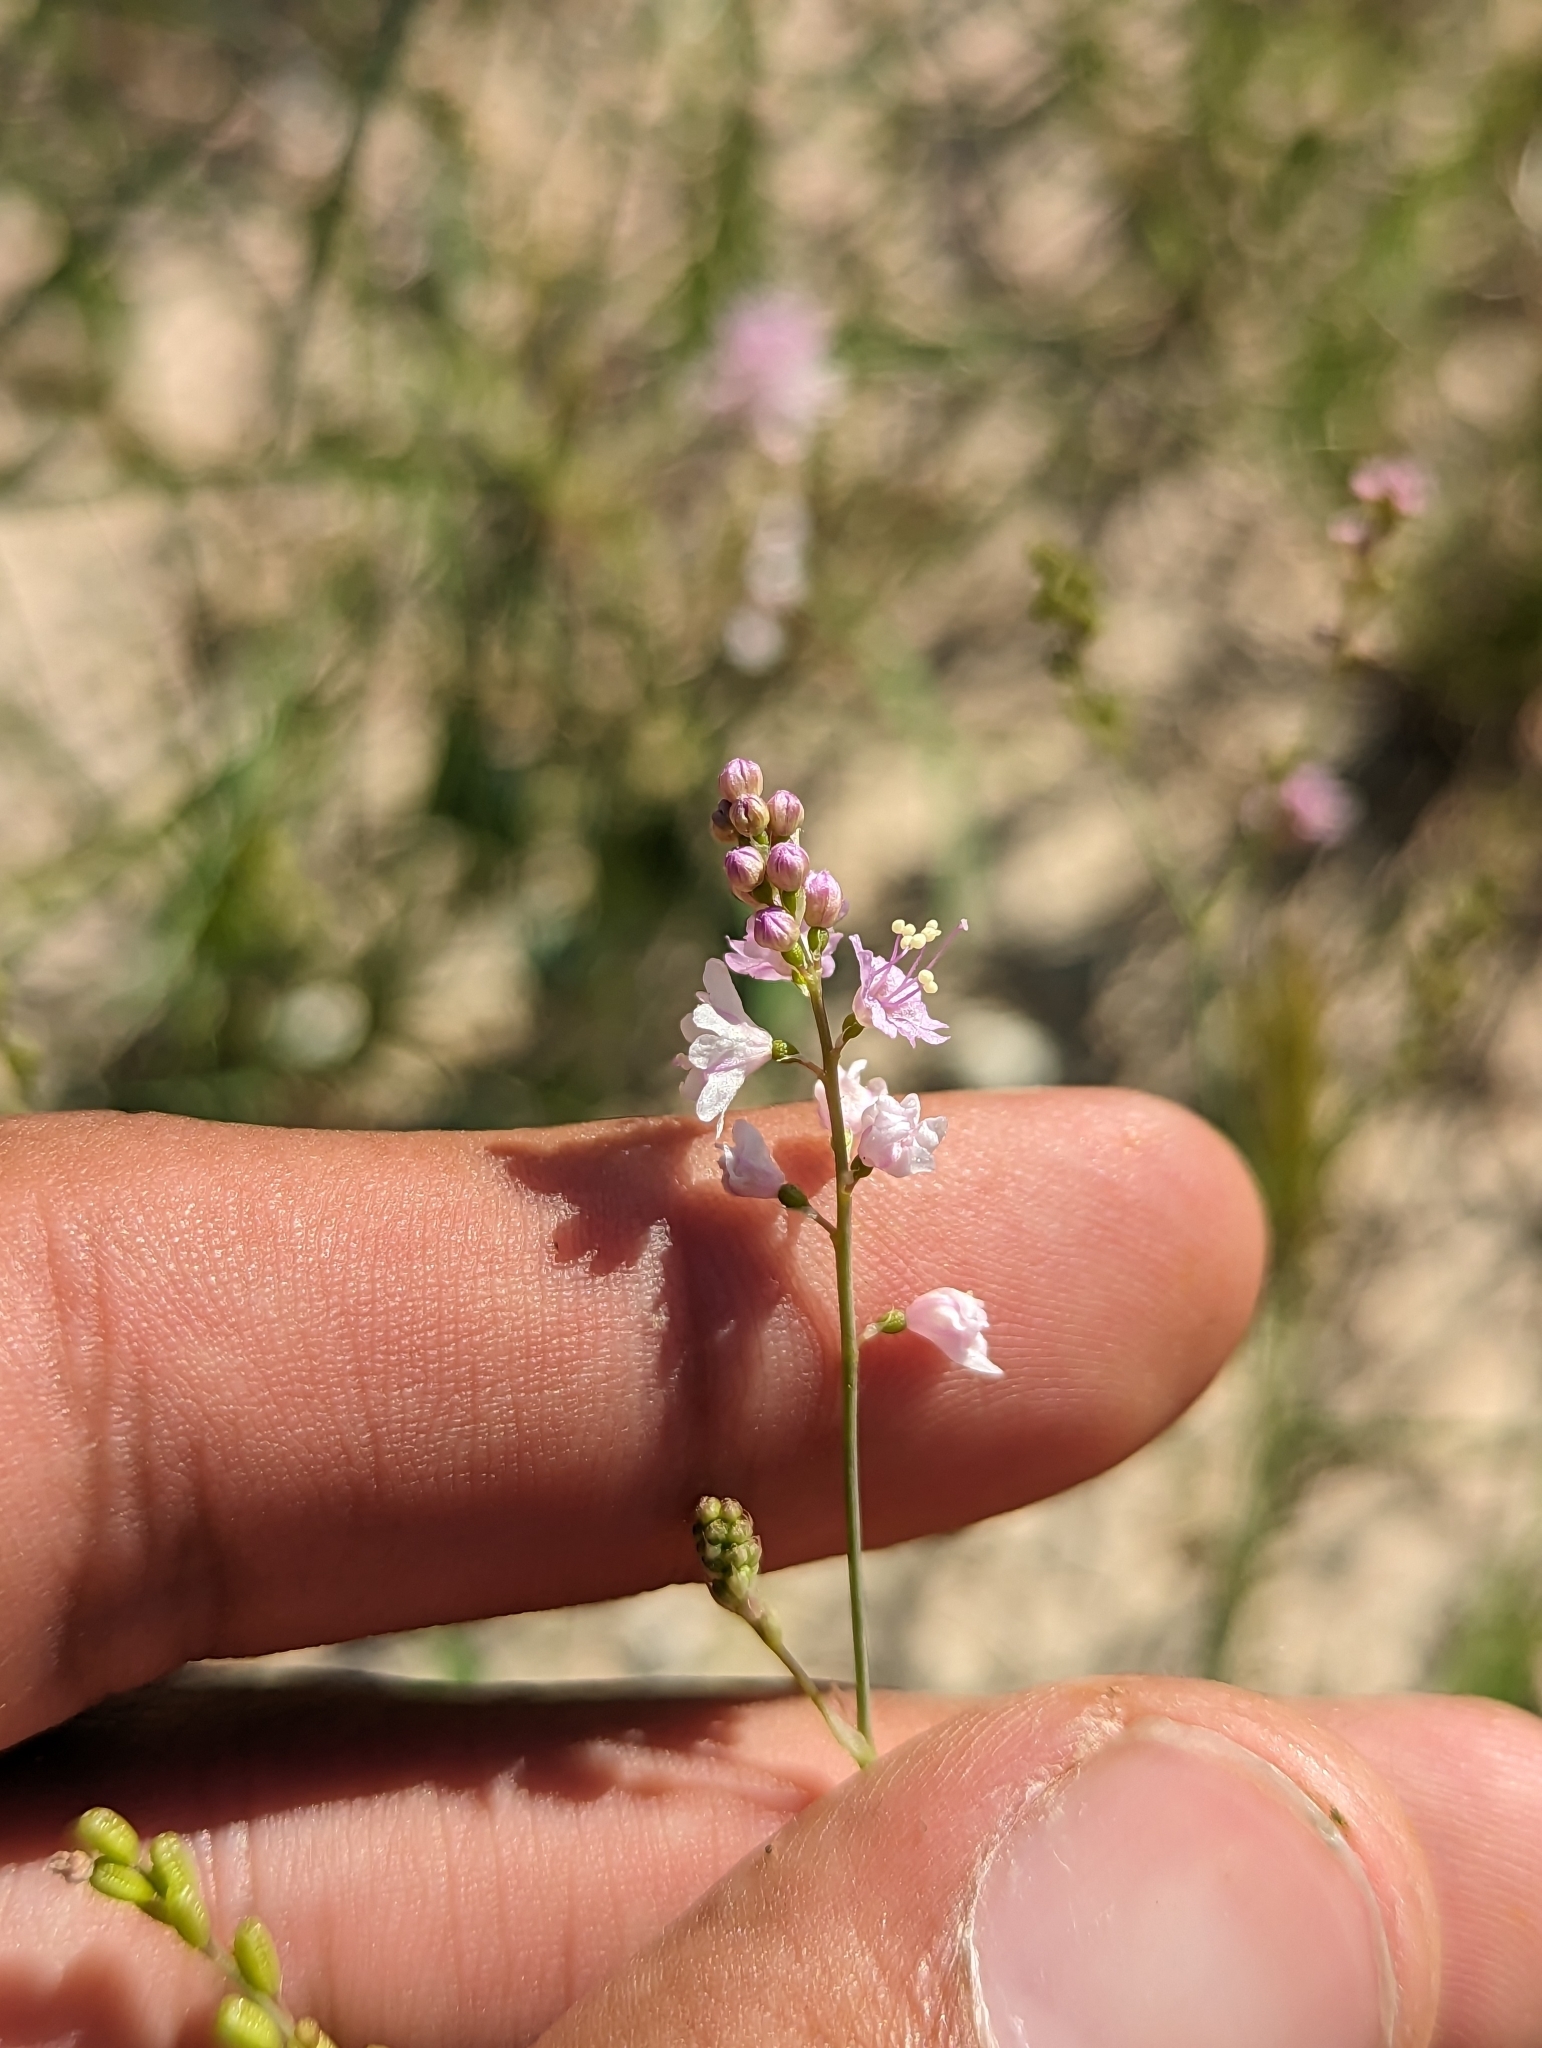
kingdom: Plantae
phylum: Tracheophyta
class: Magnoliopsida
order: Caryophyllales
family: Nyctaginaceae
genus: Boerhavia
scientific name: Boerhavia xantii
